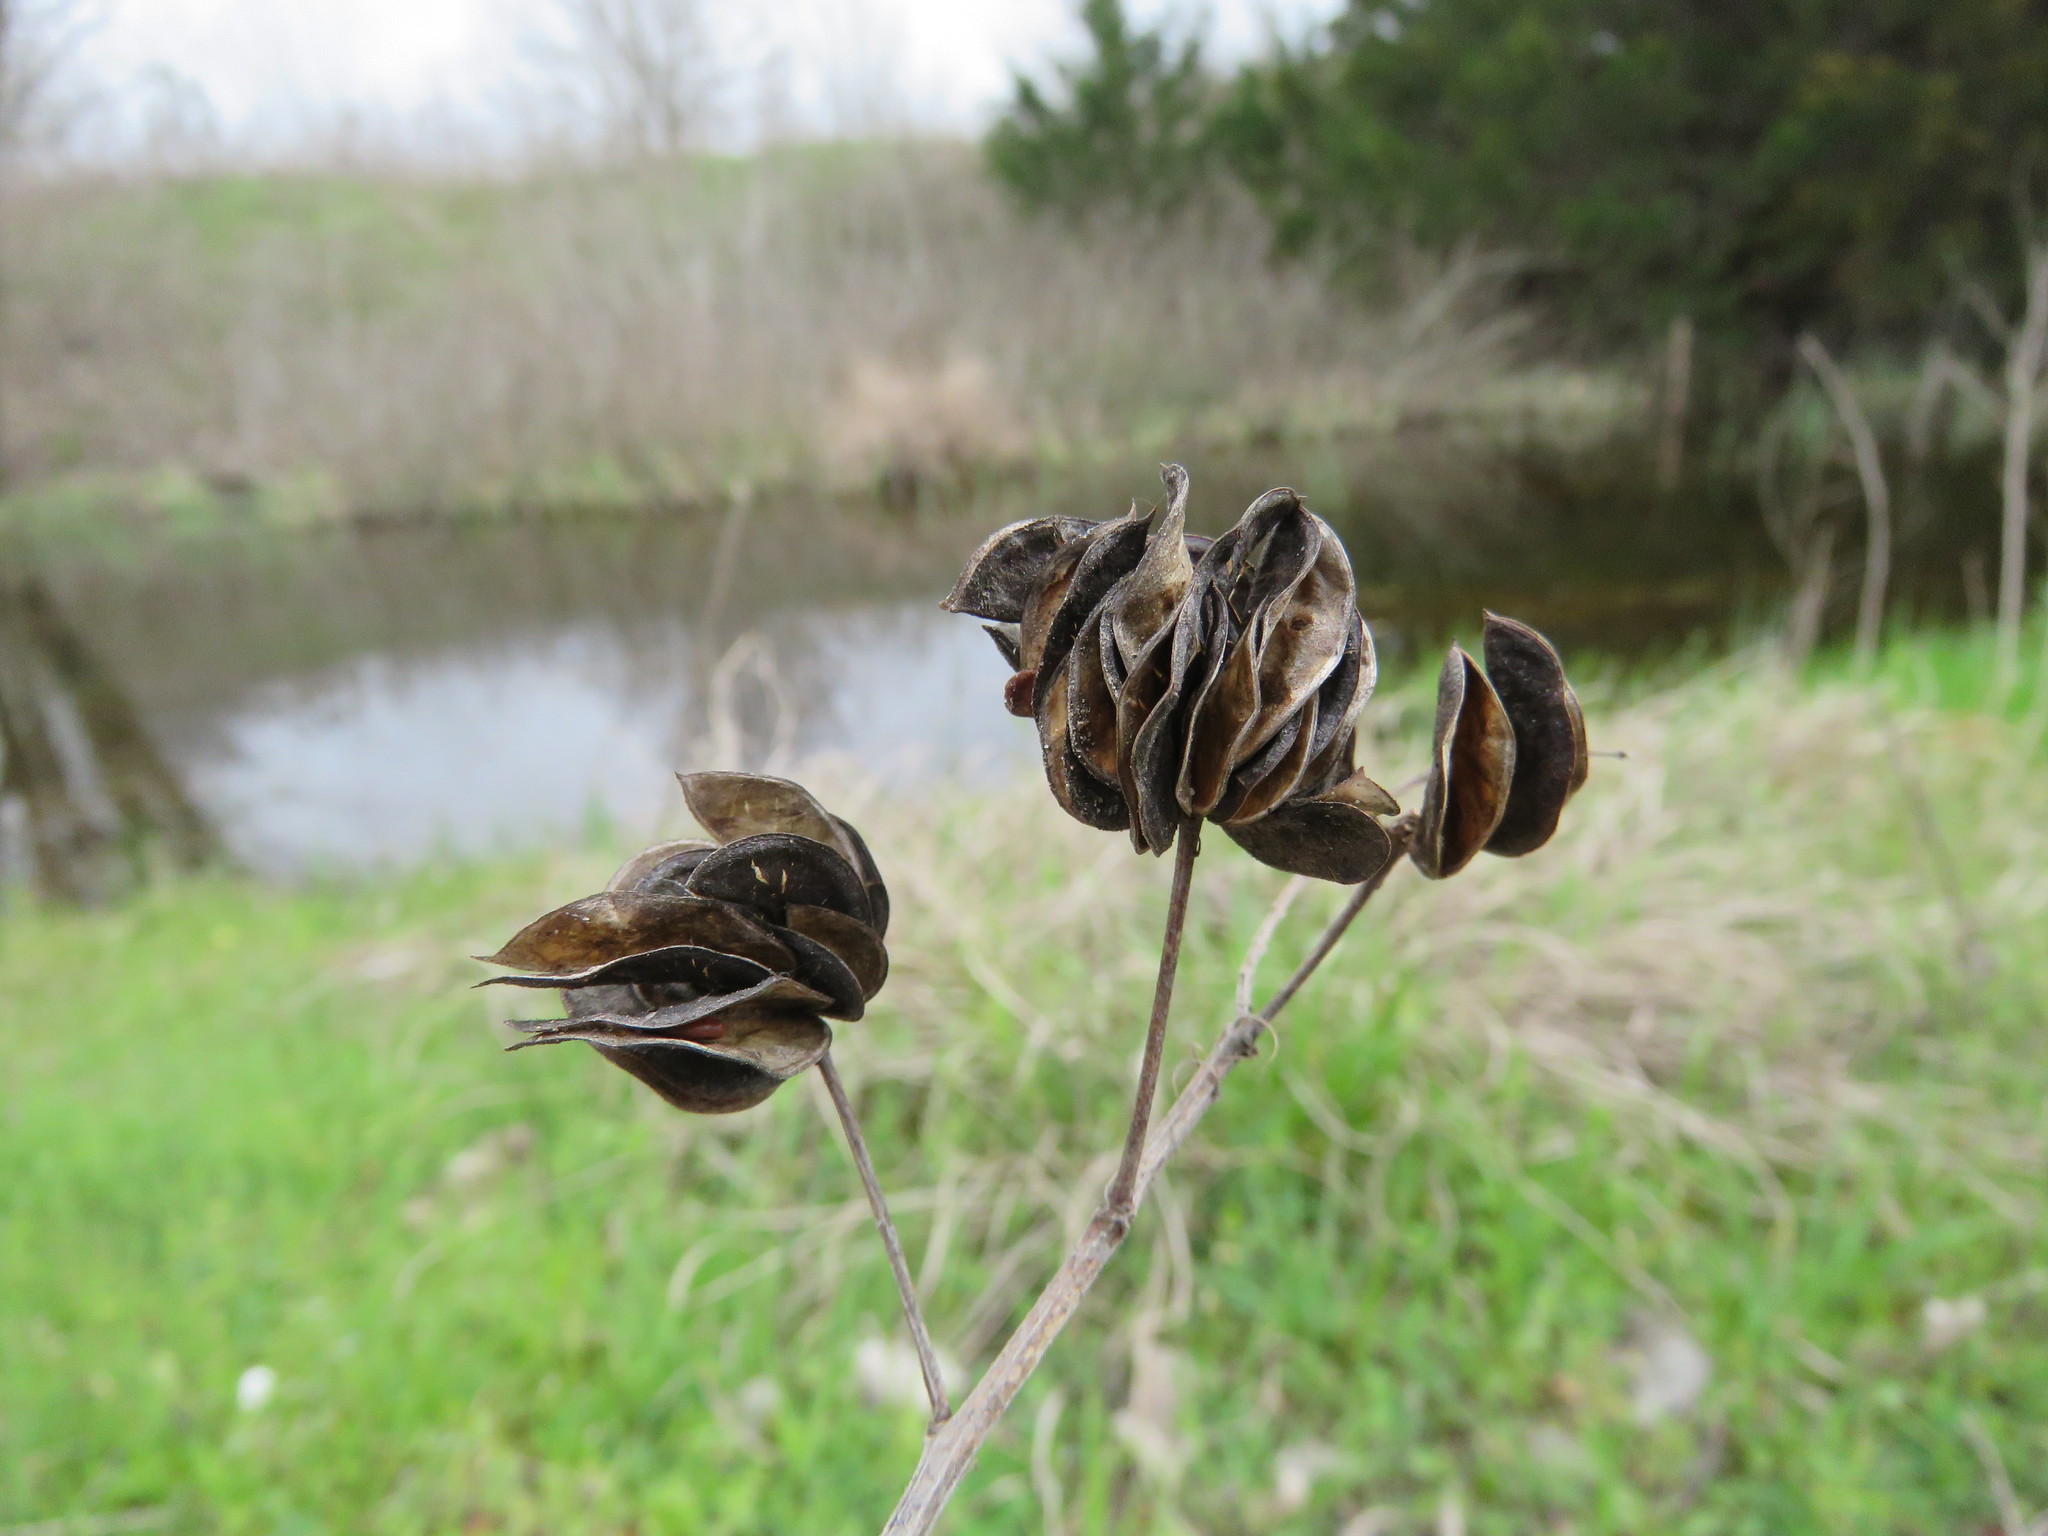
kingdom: Plantae
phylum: Tracheophyta
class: Magnoliopsida
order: Fabales
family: Fabaceae
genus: Desmanthus
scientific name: Desmanthus illinoensis
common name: Illinois bundle-flower
